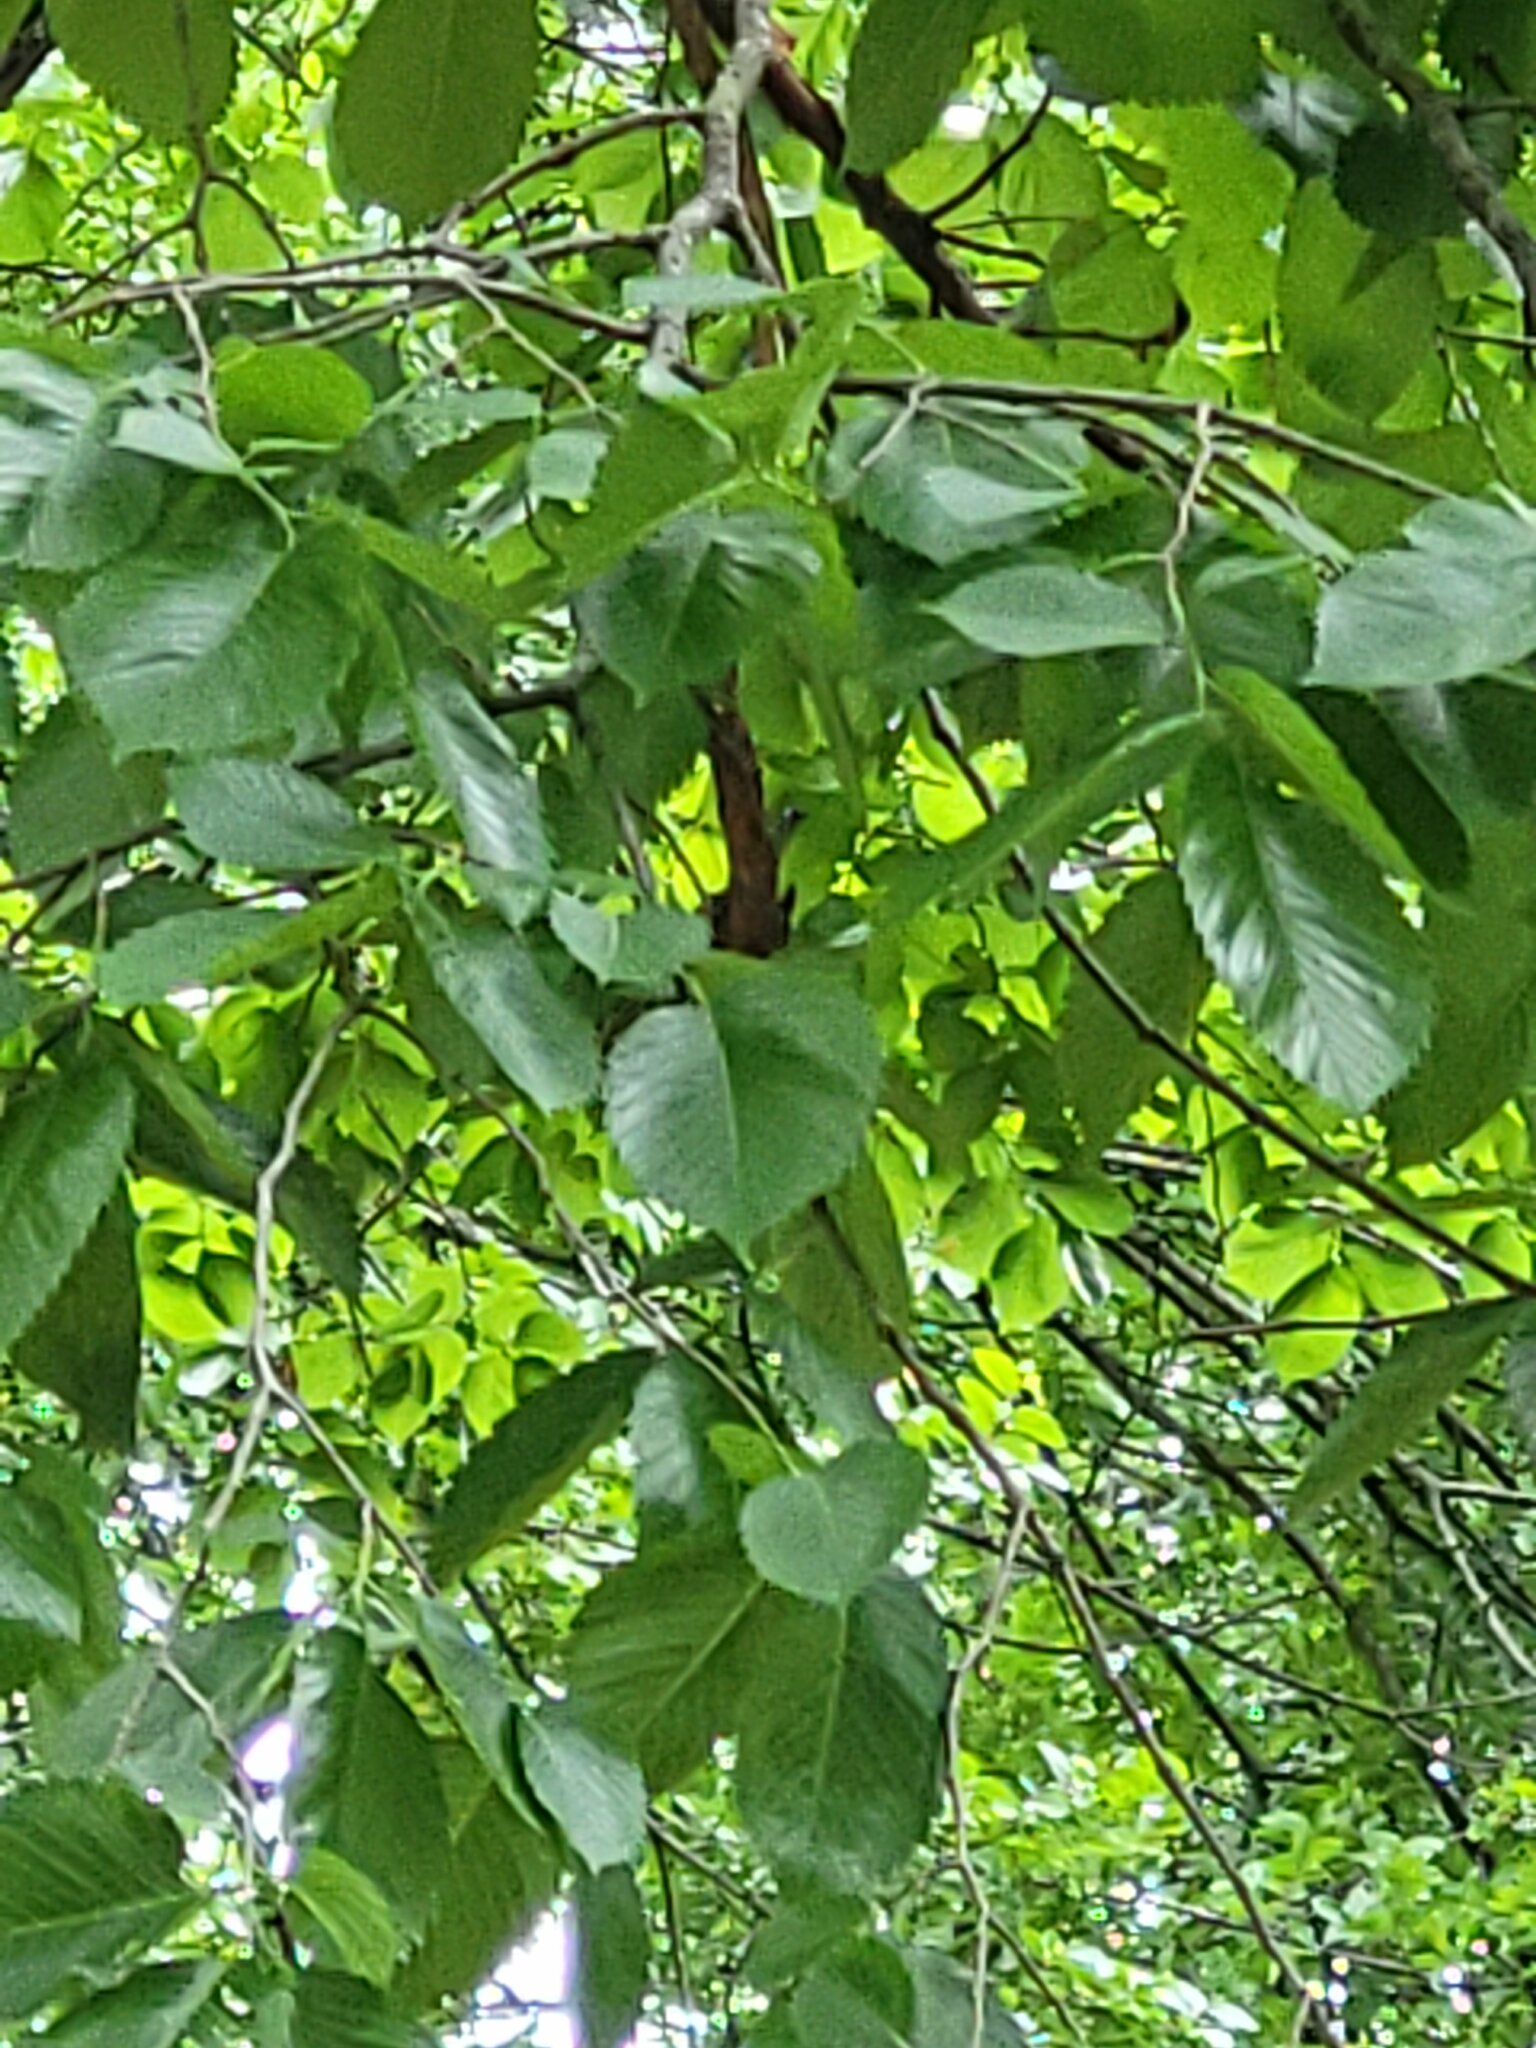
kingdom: Plantae
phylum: Tracheophyta
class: Magnoliopsida
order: Rosales
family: Ulmaceae
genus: Ulmus
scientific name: Ulmus americana
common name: American elm
